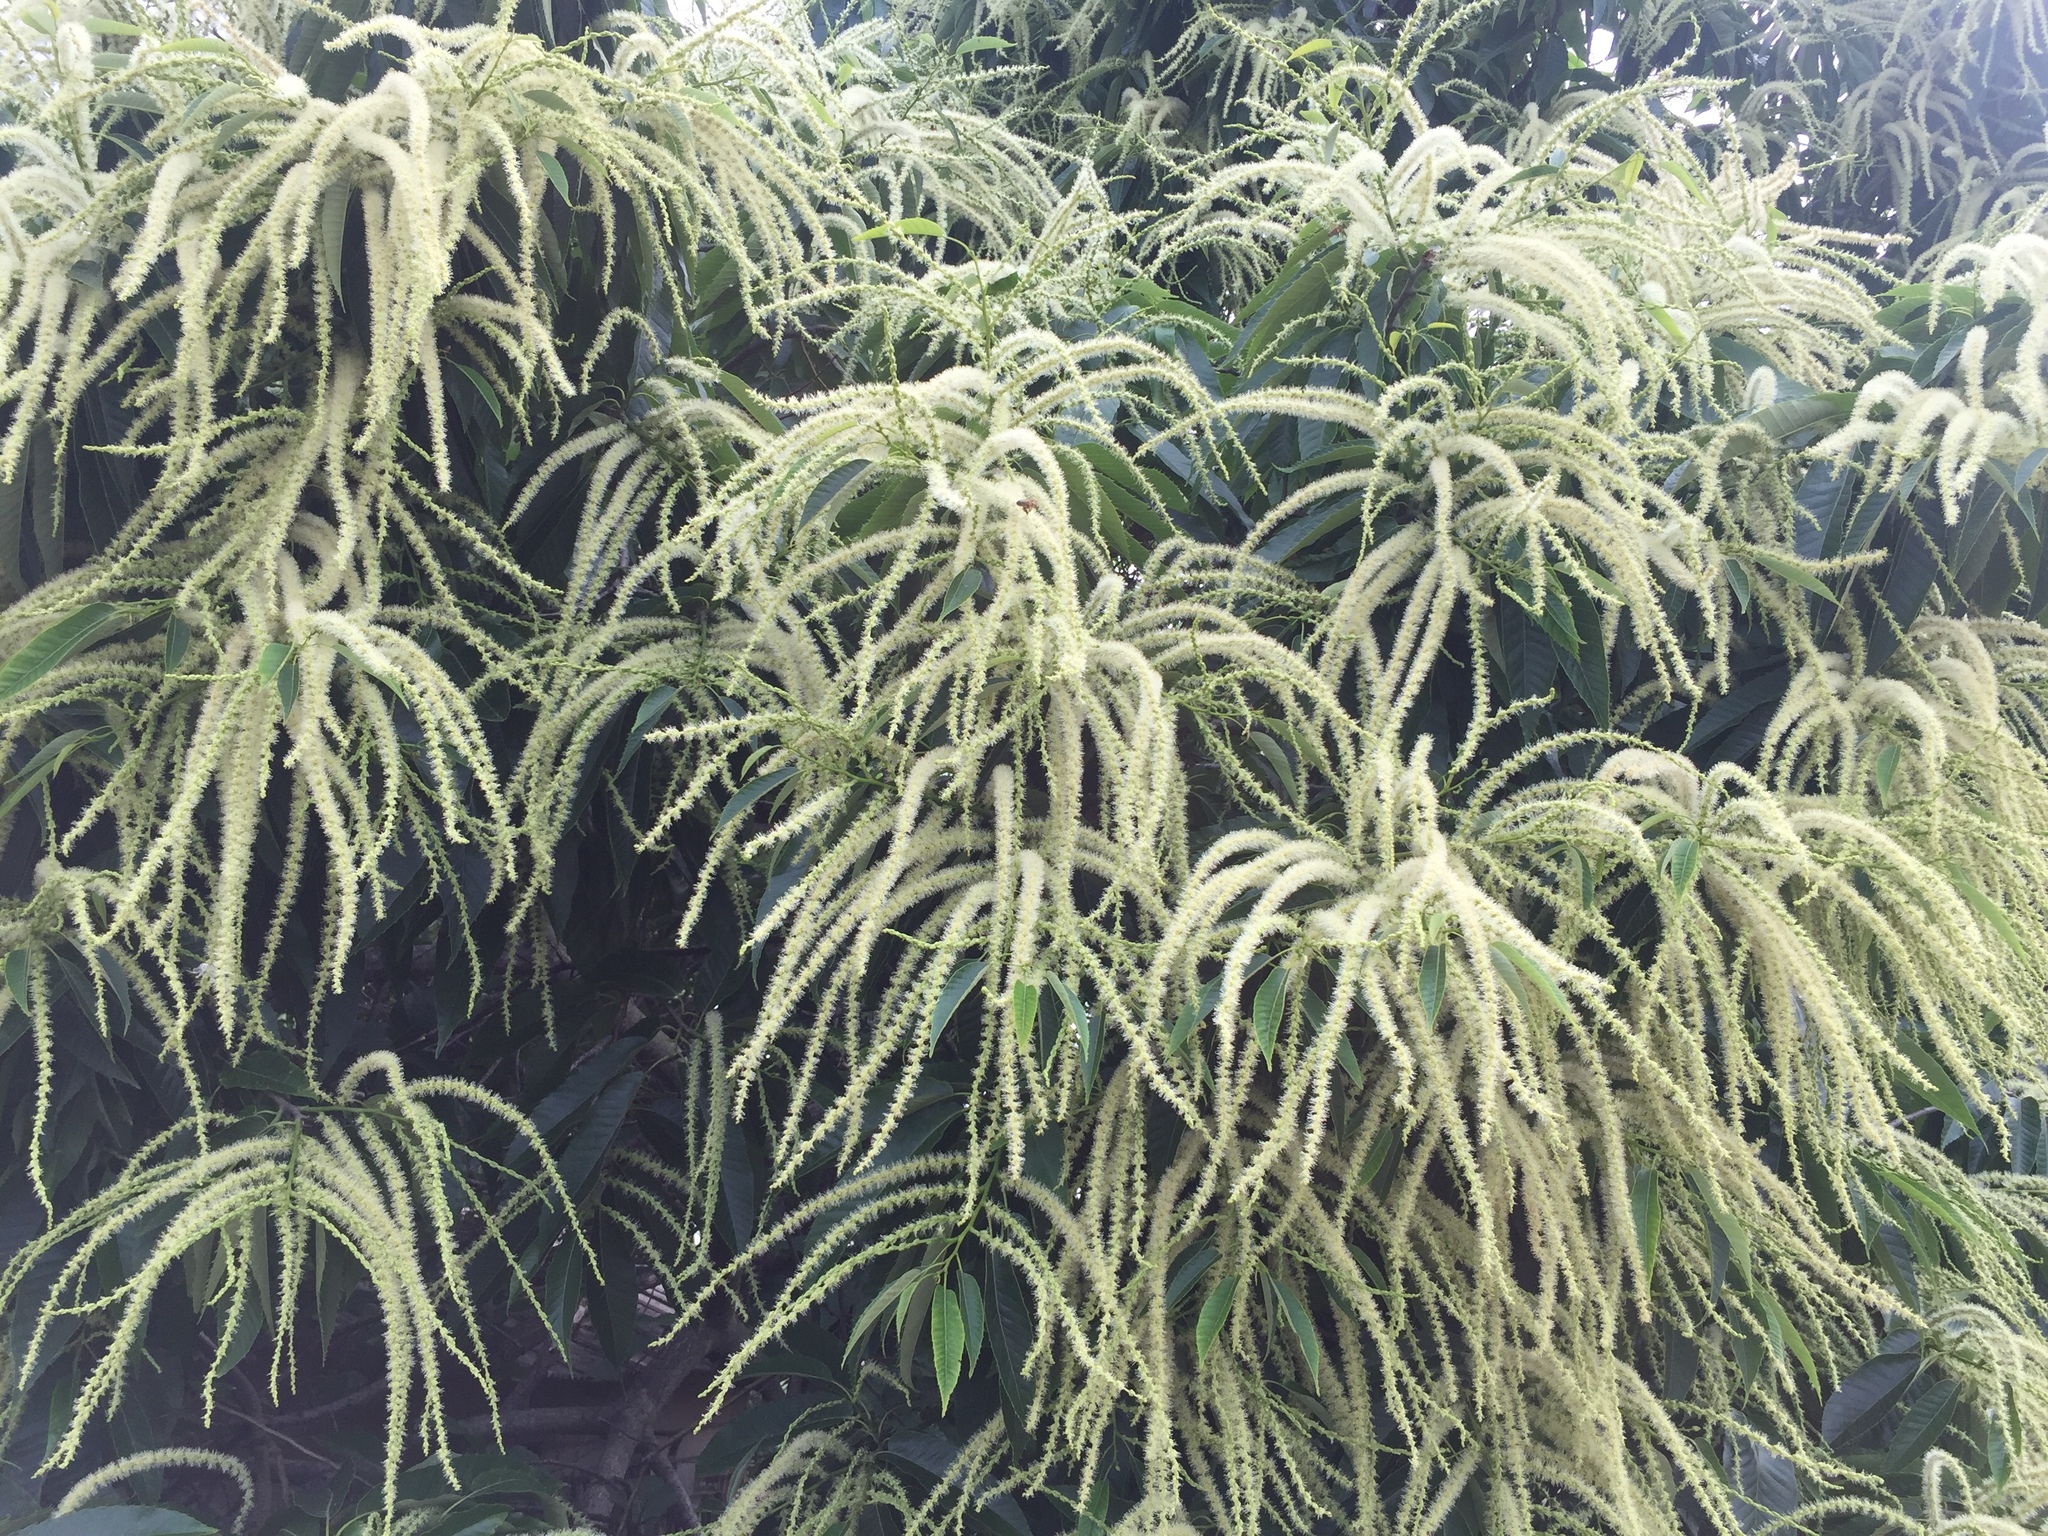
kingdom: Plantae
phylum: Tracheophyta
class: Magnoliopsida
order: Fagales
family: Fagaceae
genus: Castanea
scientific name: Castanea crenata
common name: Japanese chestnut
